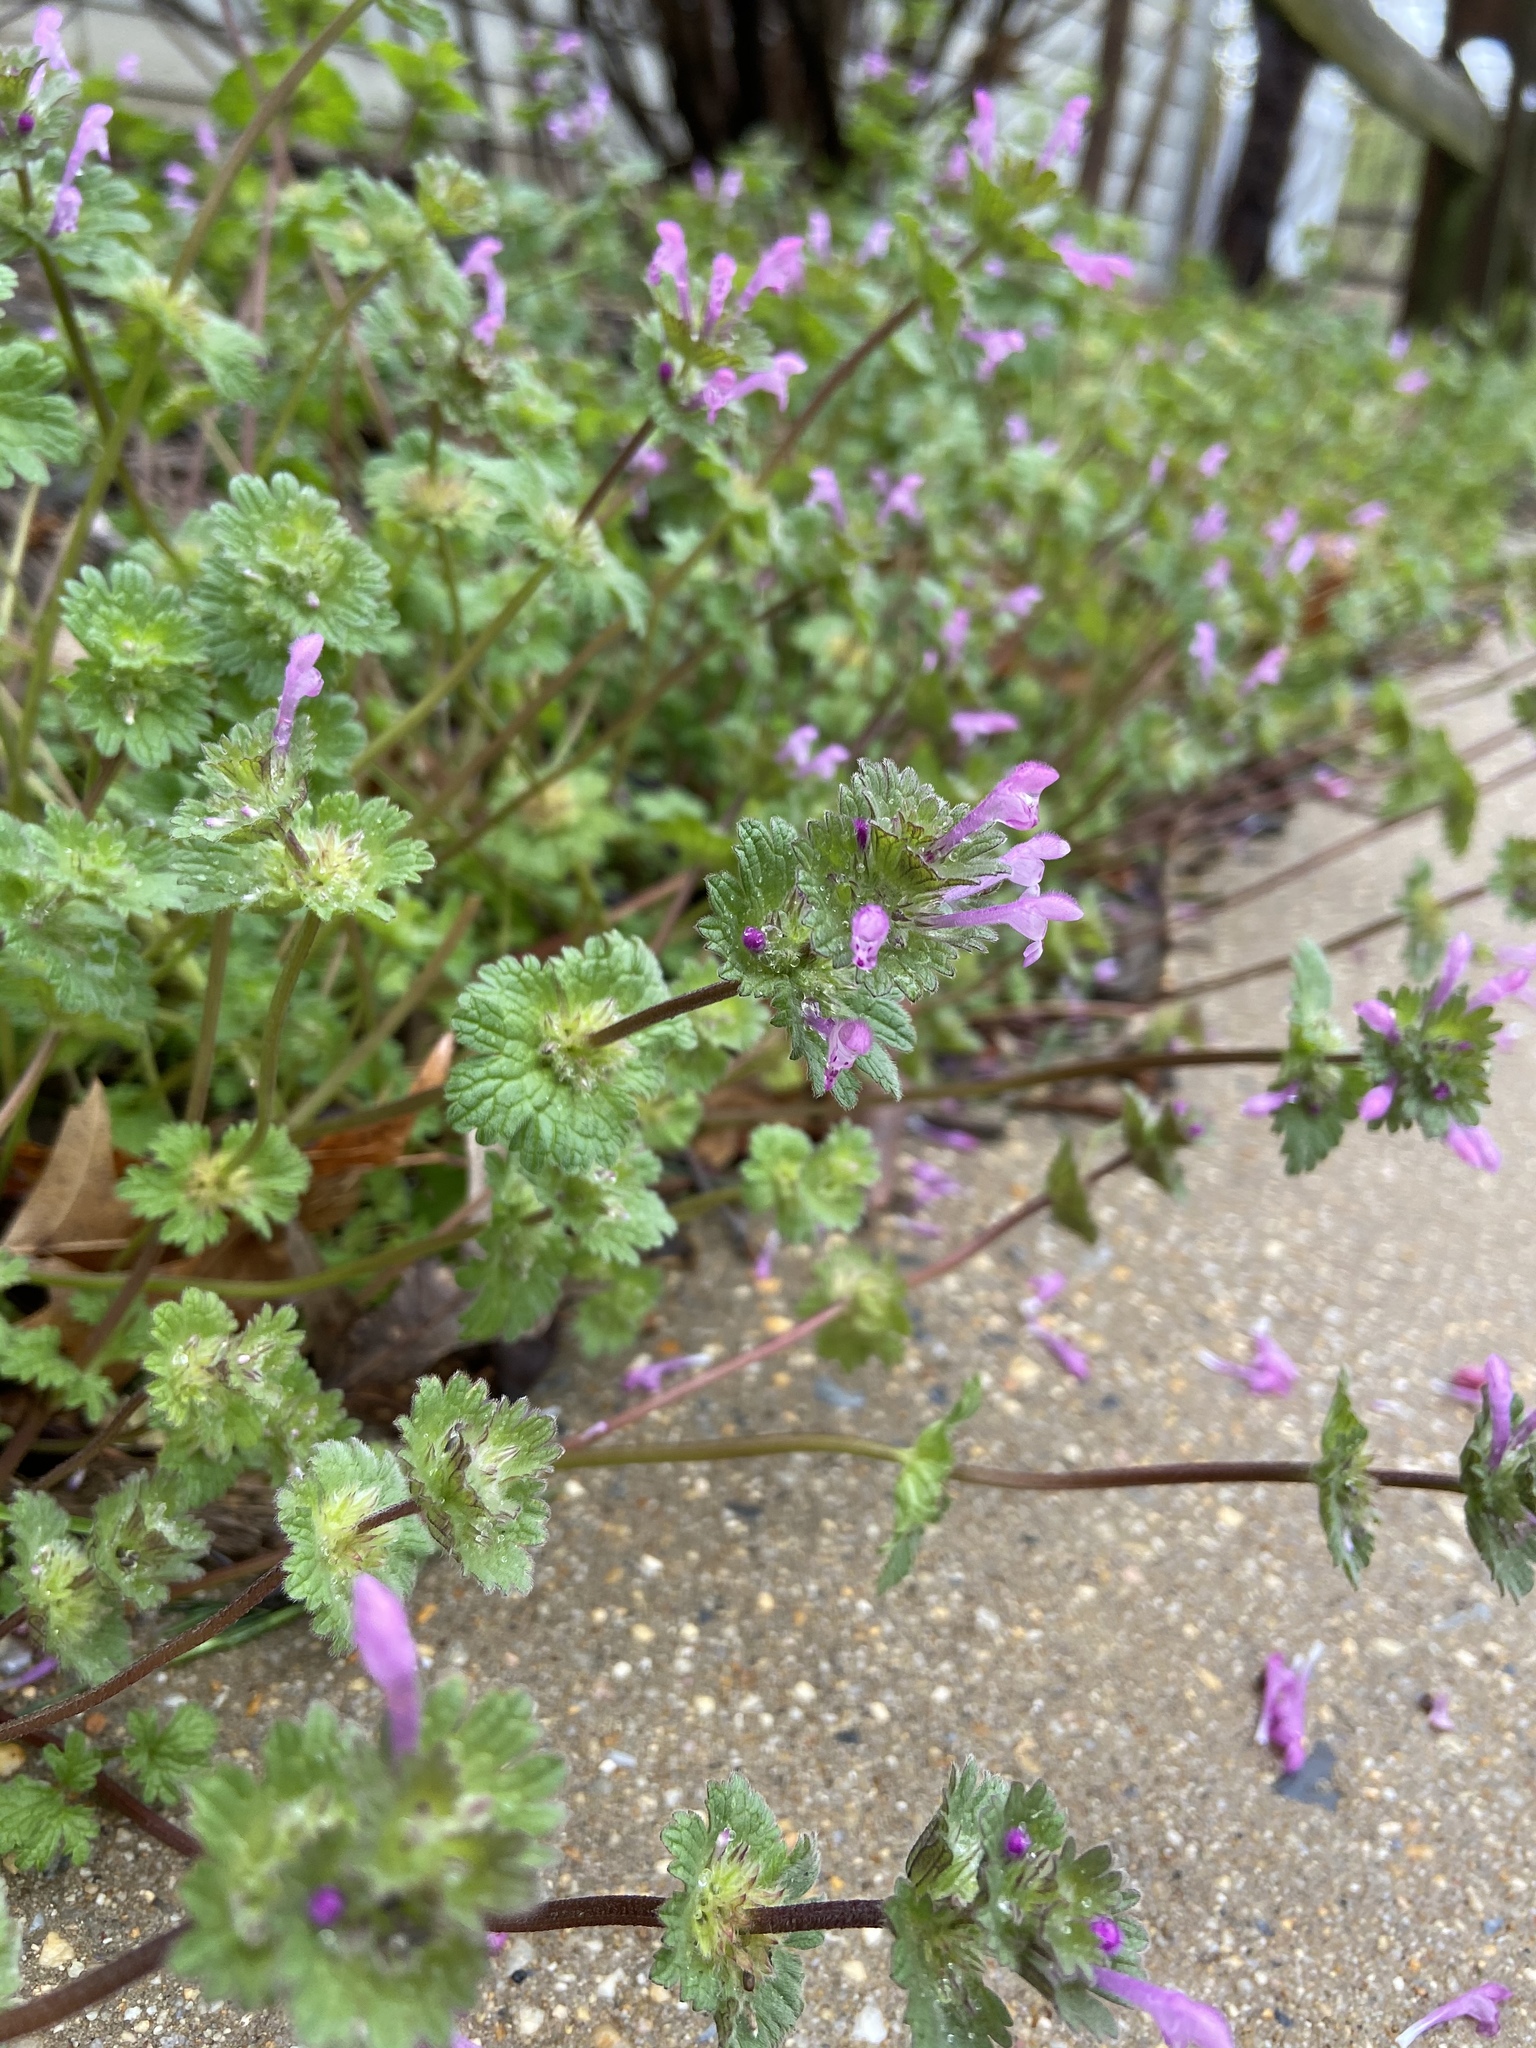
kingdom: Plantae
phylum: Tracheophyta
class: Magnoliopsida
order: Lamiales
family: Lamiaceae
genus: Lamium
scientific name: Lamium amplexicaule
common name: Henbit dead-nettle
